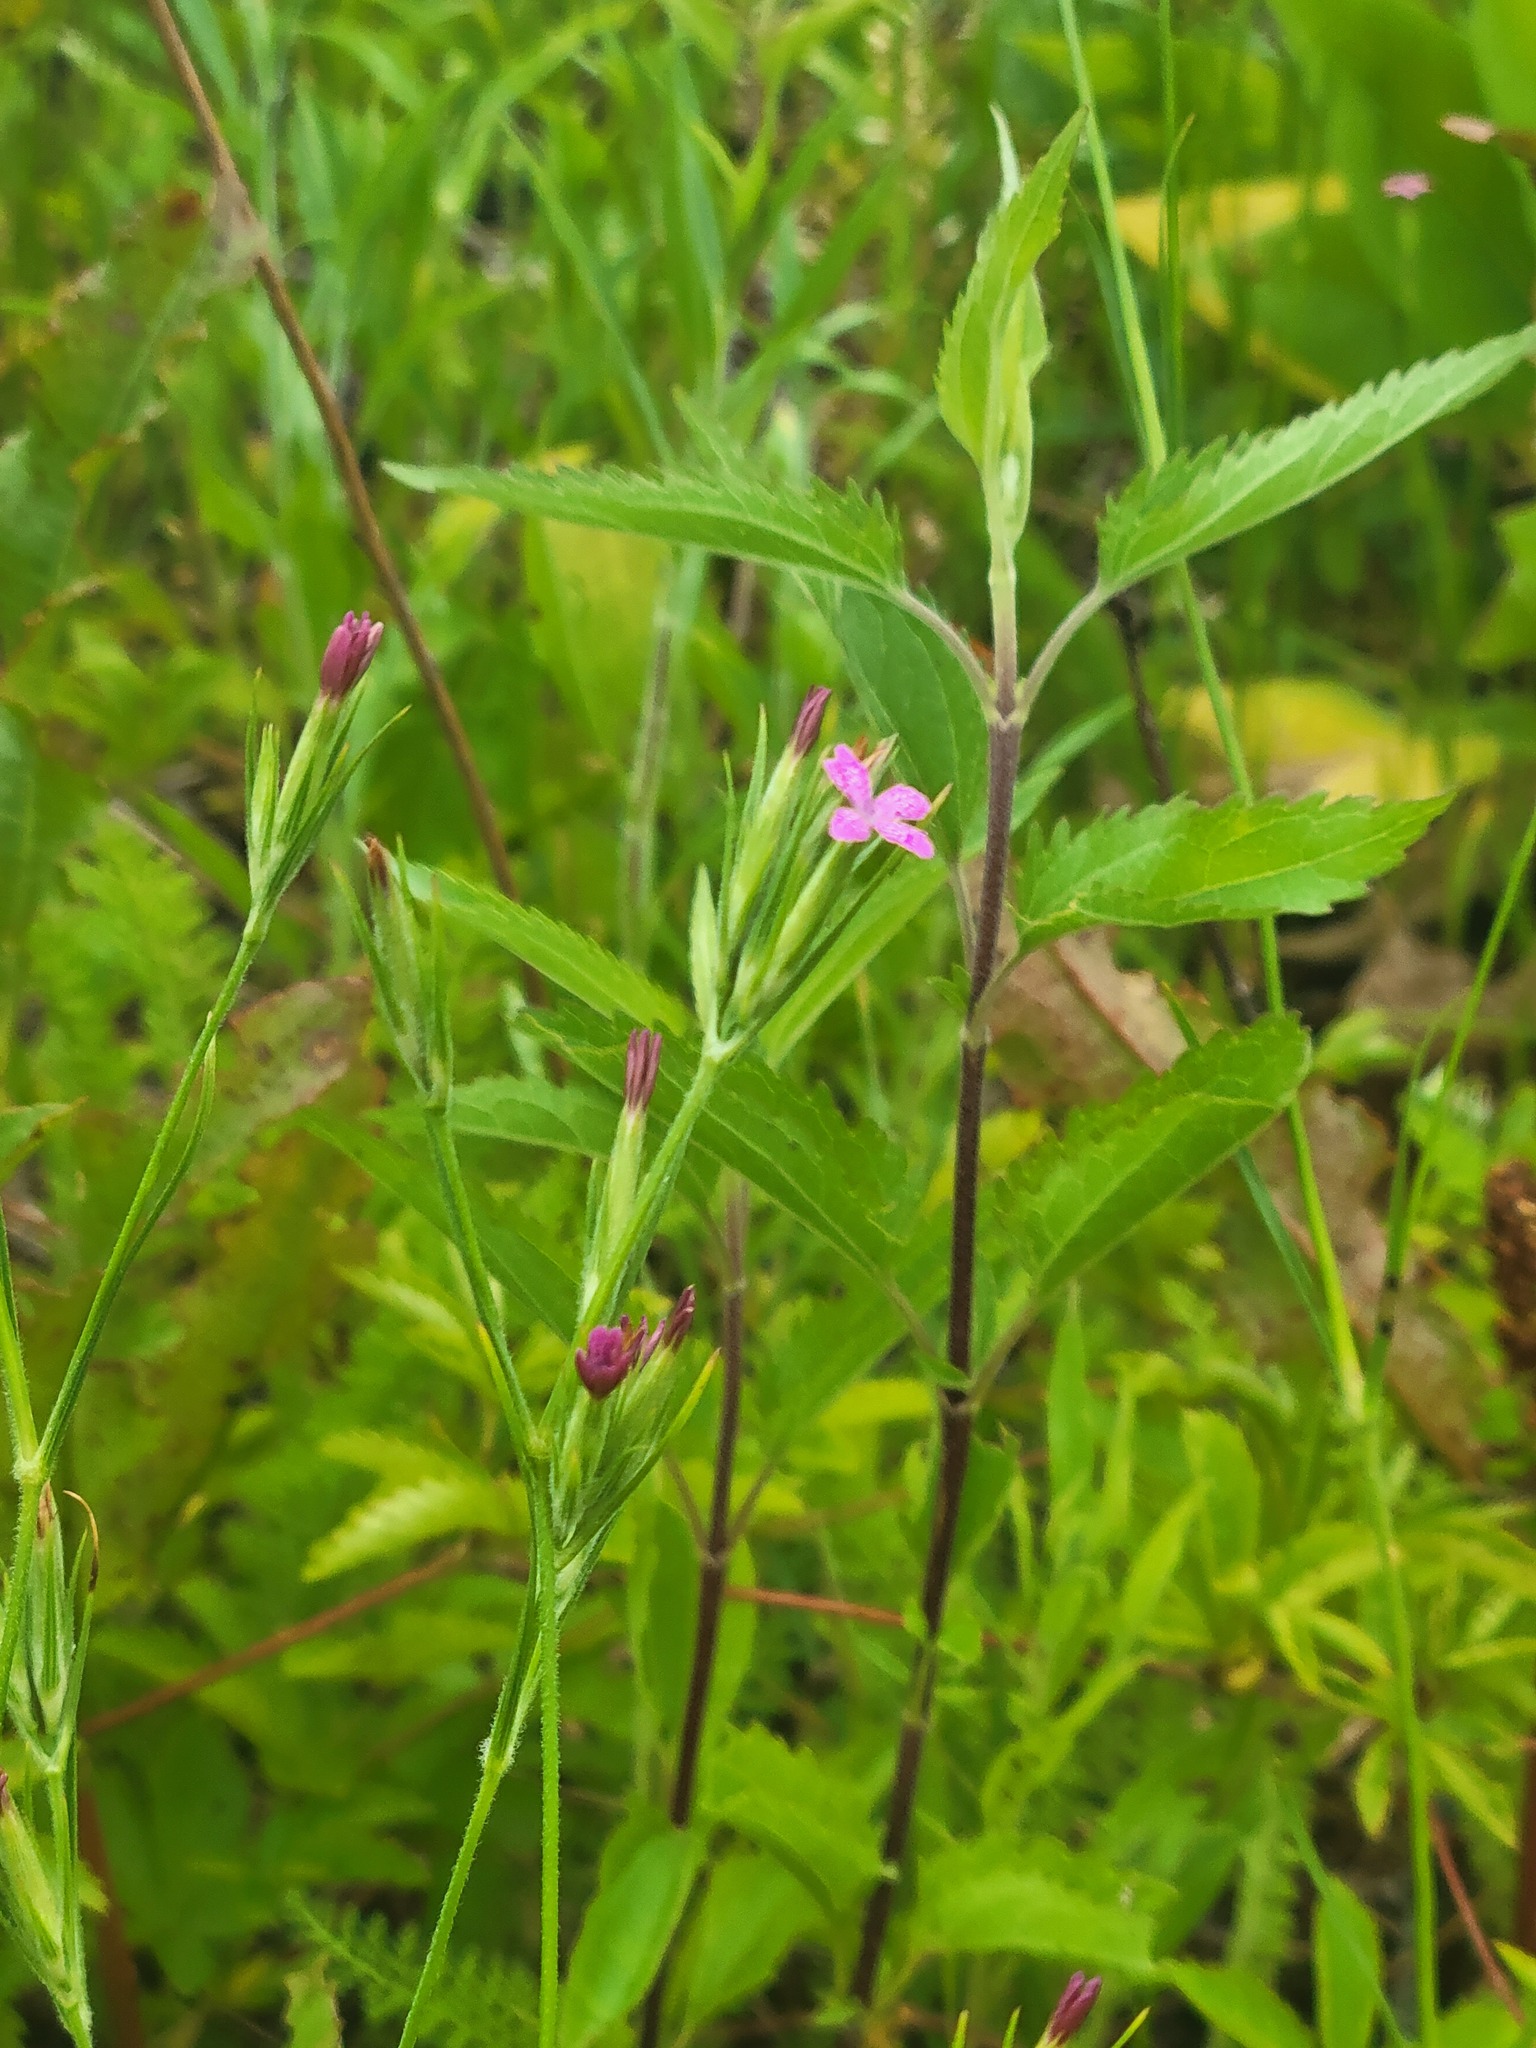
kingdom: Plantae
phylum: Tracheophyta
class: Magnoliopsida
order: Caryophyllales
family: Caryophyllaceae
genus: Dianthus
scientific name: Dianthus armeria
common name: Deptford pink
